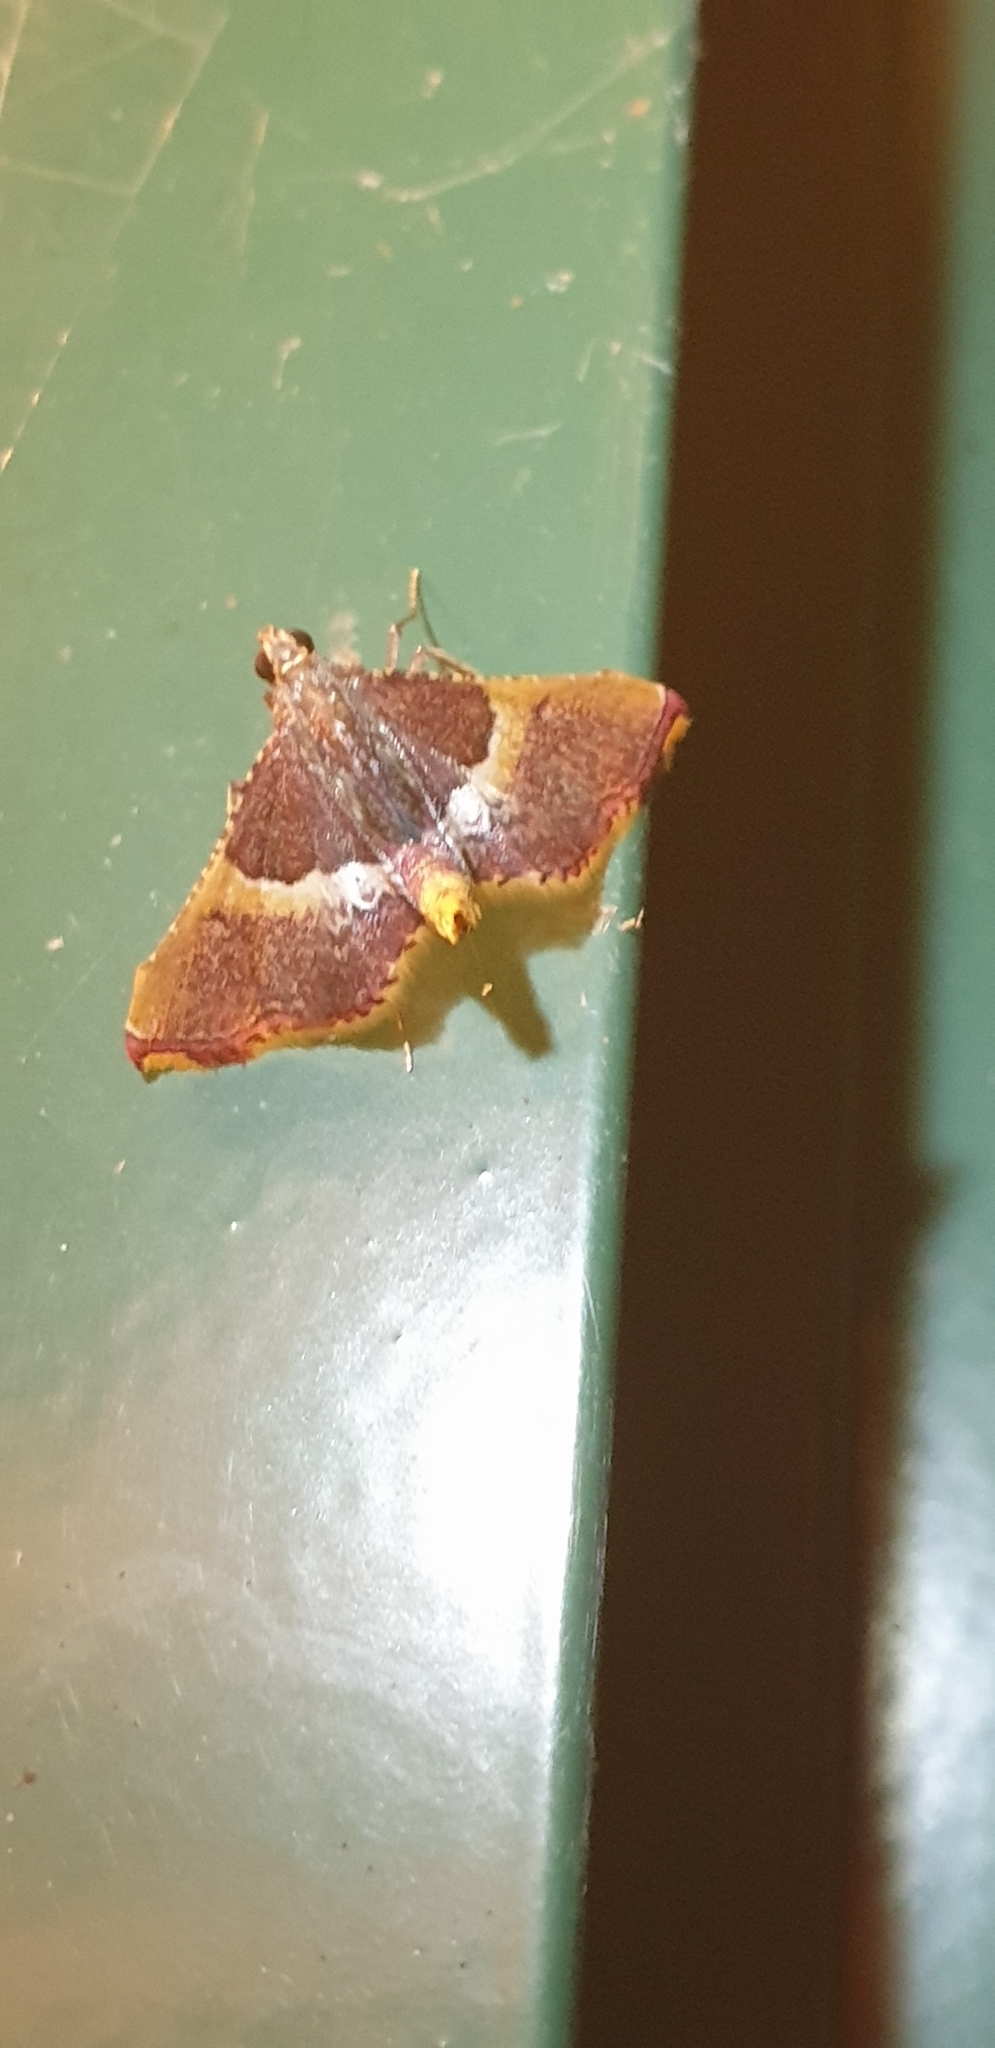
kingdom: Animalia
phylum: Arthropoda
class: Insecta
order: Lepidoptera
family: Pyralidae
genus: Endotricha
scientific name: Endotricha mesenterialis
